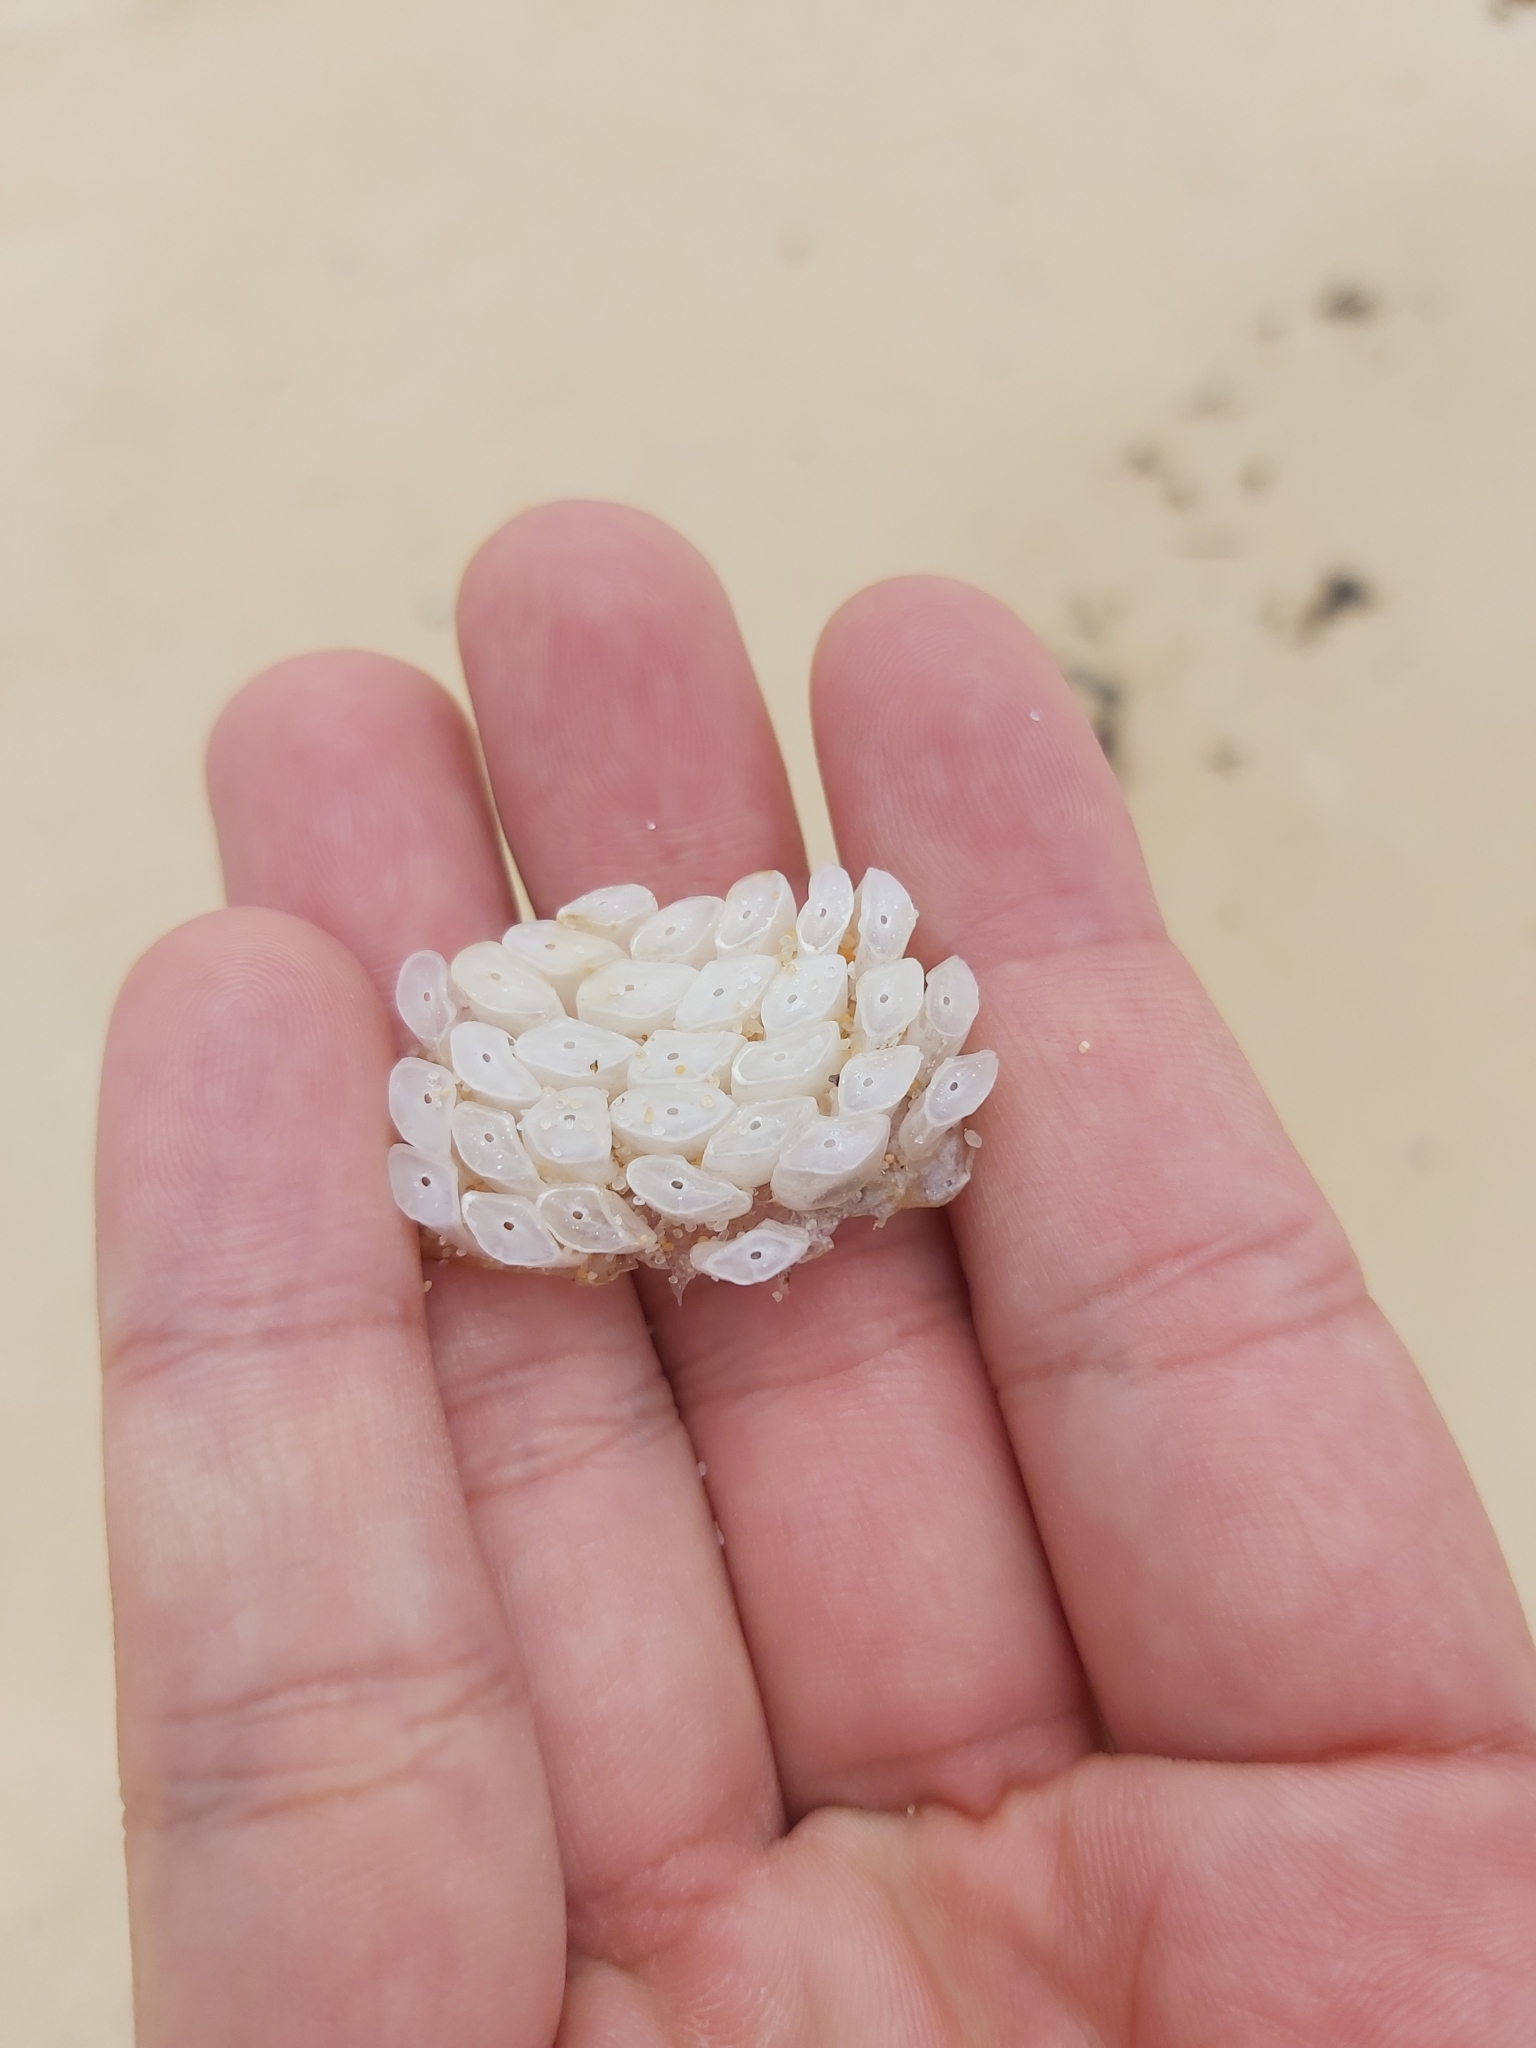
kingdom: Animalia
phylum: Mollusca
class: Gastropoda
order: Neogastropoda
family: Muricidae
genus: Dicathais
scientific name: Dicathais orbita
